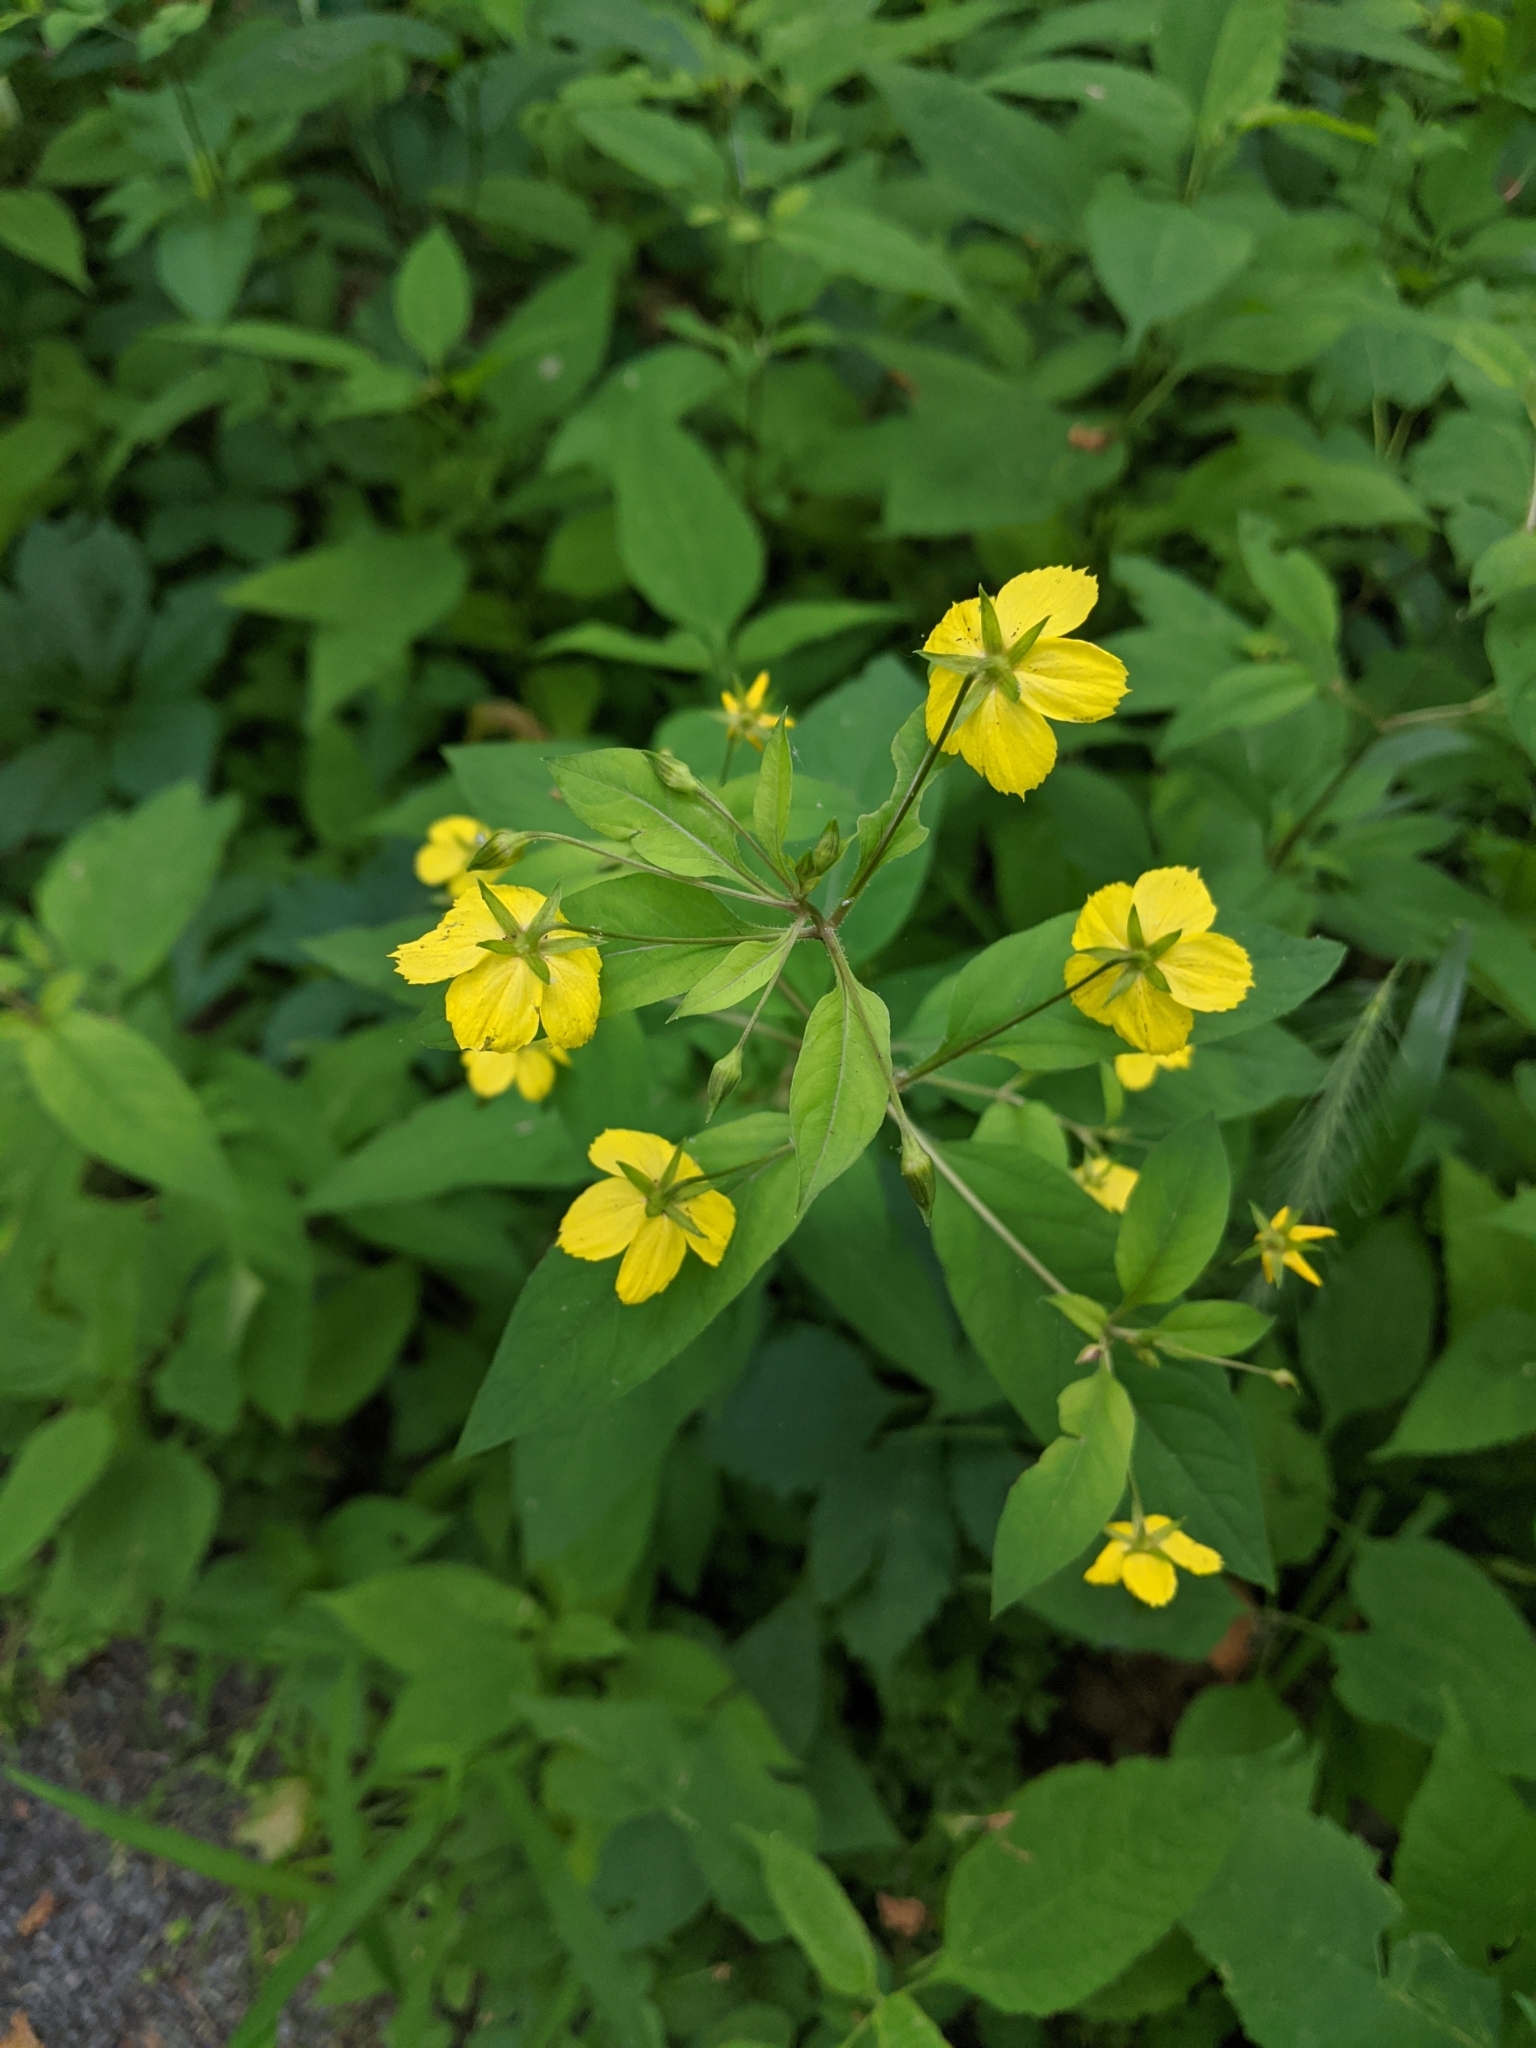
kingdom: Plantae
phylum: Tracheophyta
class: Magnoliopsida
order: Ericales
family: Primulaceae
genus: Lysimachia
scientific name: Lysimachia ciliata
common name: Fringed loosestrife
